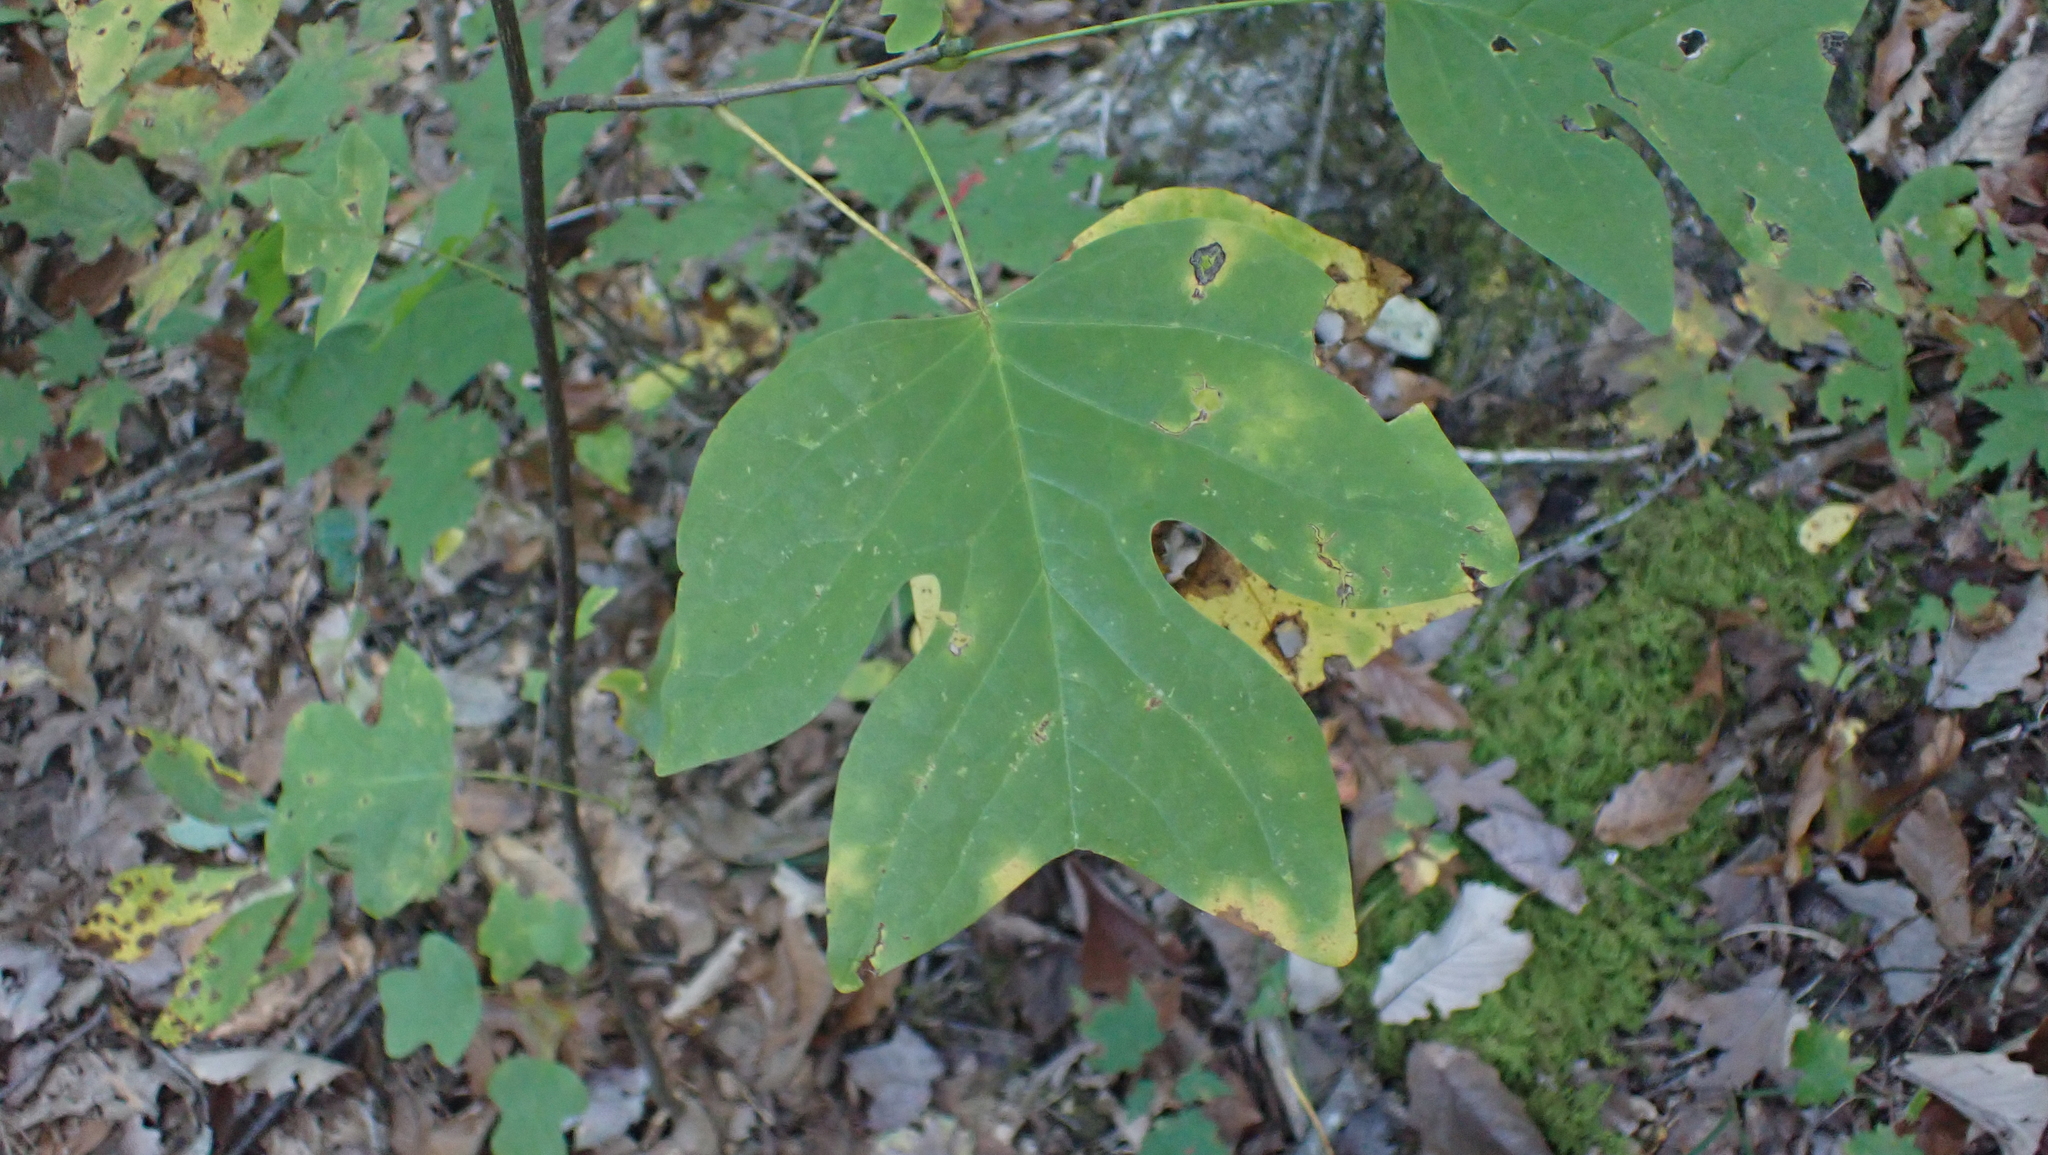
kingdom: Plantae
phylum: Tracheophyta
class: Magnoliopsida
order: Magnoliales
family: Magnoliaceae
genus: Liriodendron
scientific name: Liriodendron tulipifera
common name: Tulip tree
